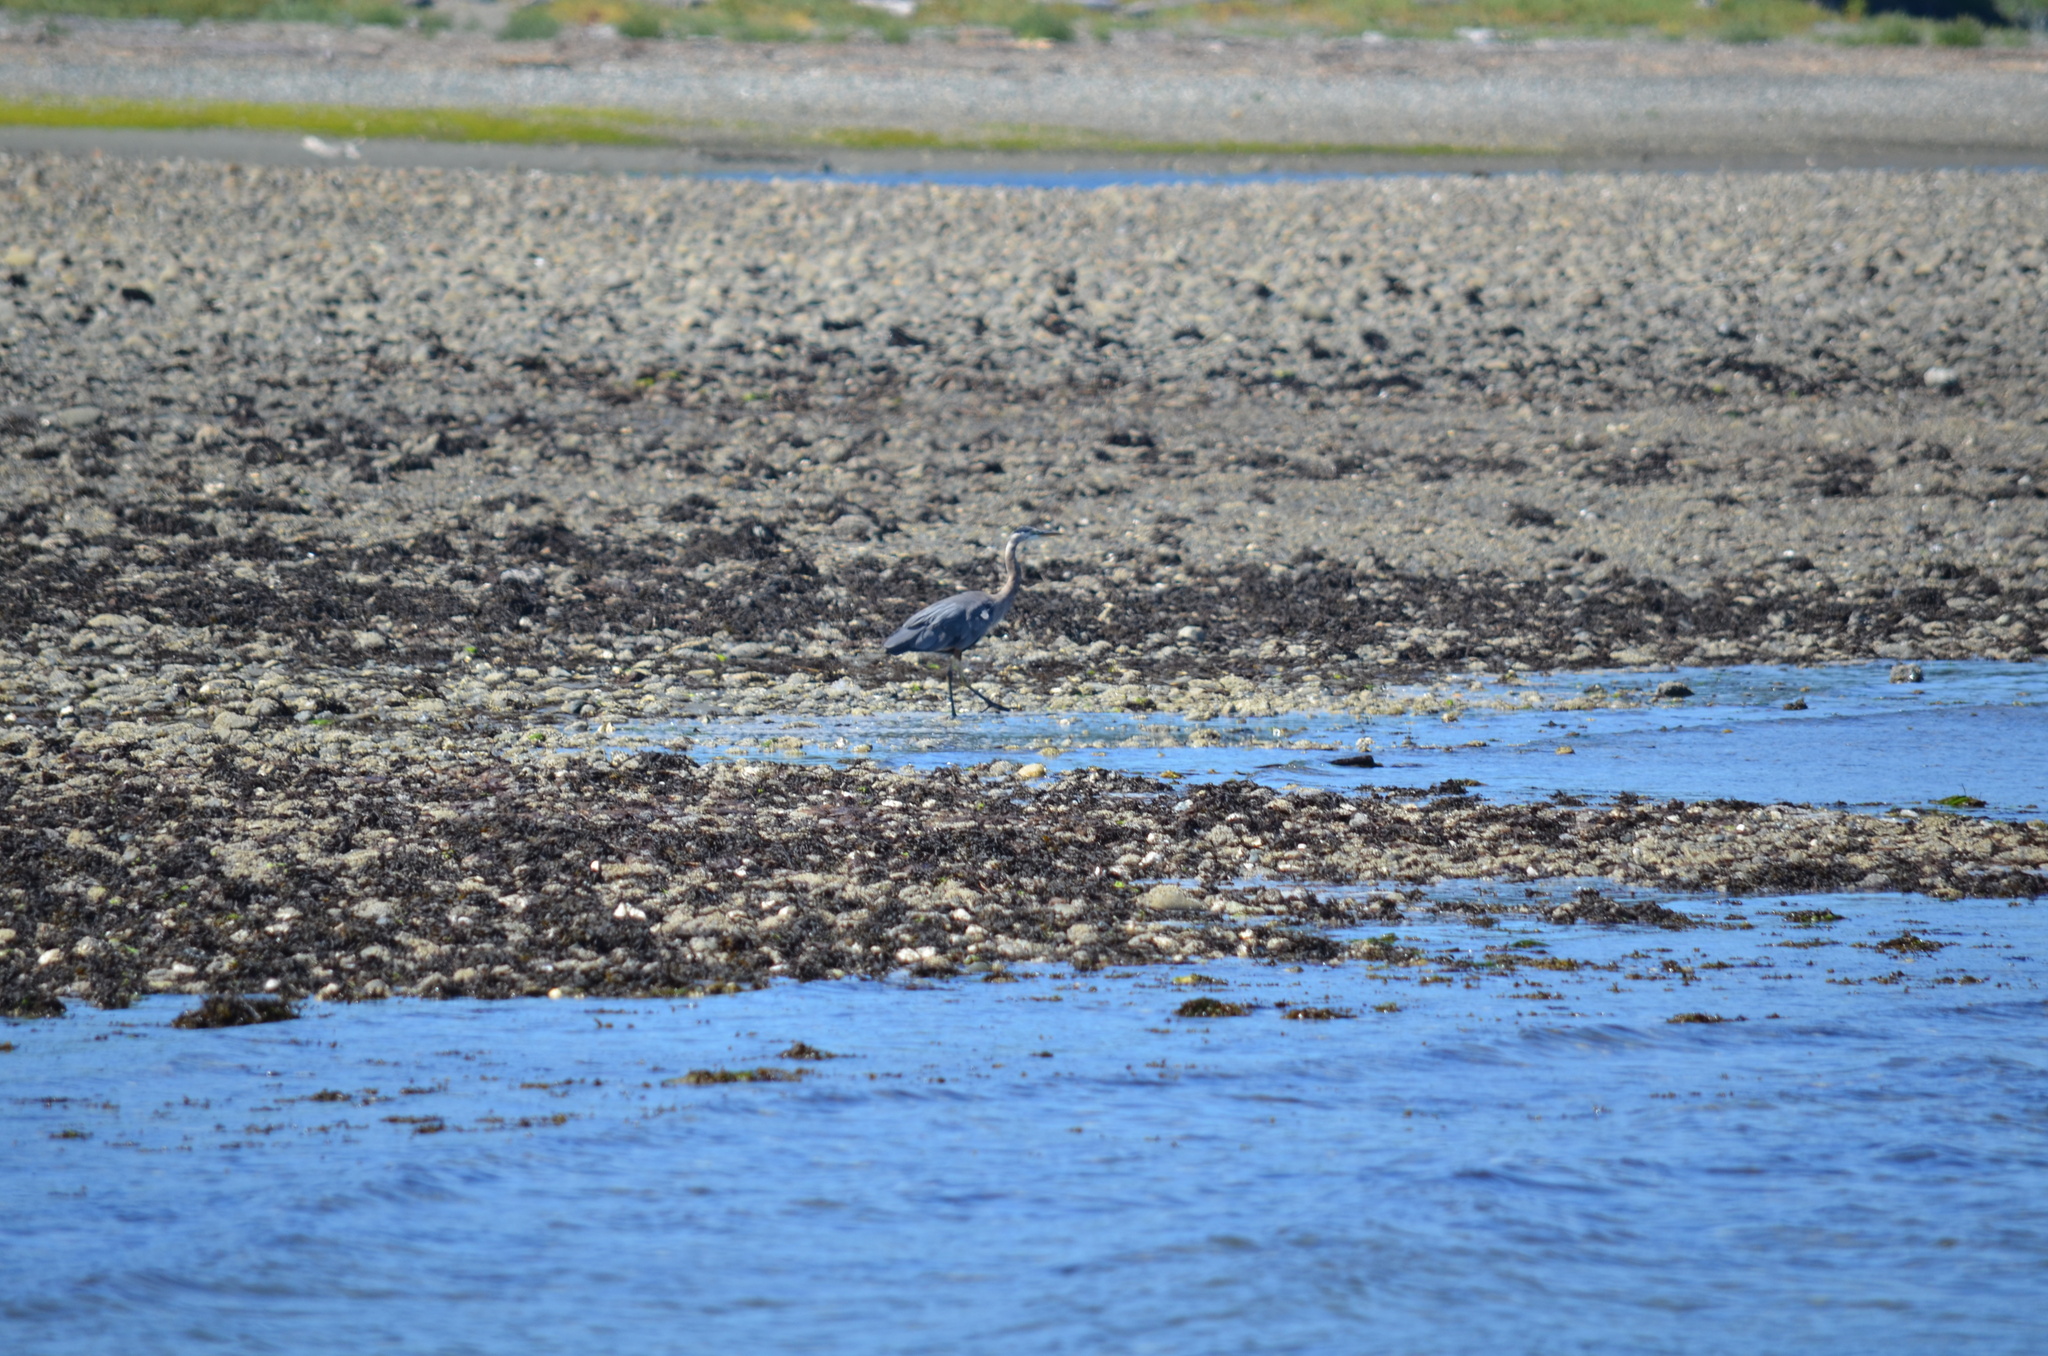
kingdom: Animalia
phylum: Chordata
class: Aves
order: Pelecaniformes
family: Ardeidae
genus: Ardea
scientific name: Ardea herodias
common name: Great blue heron
